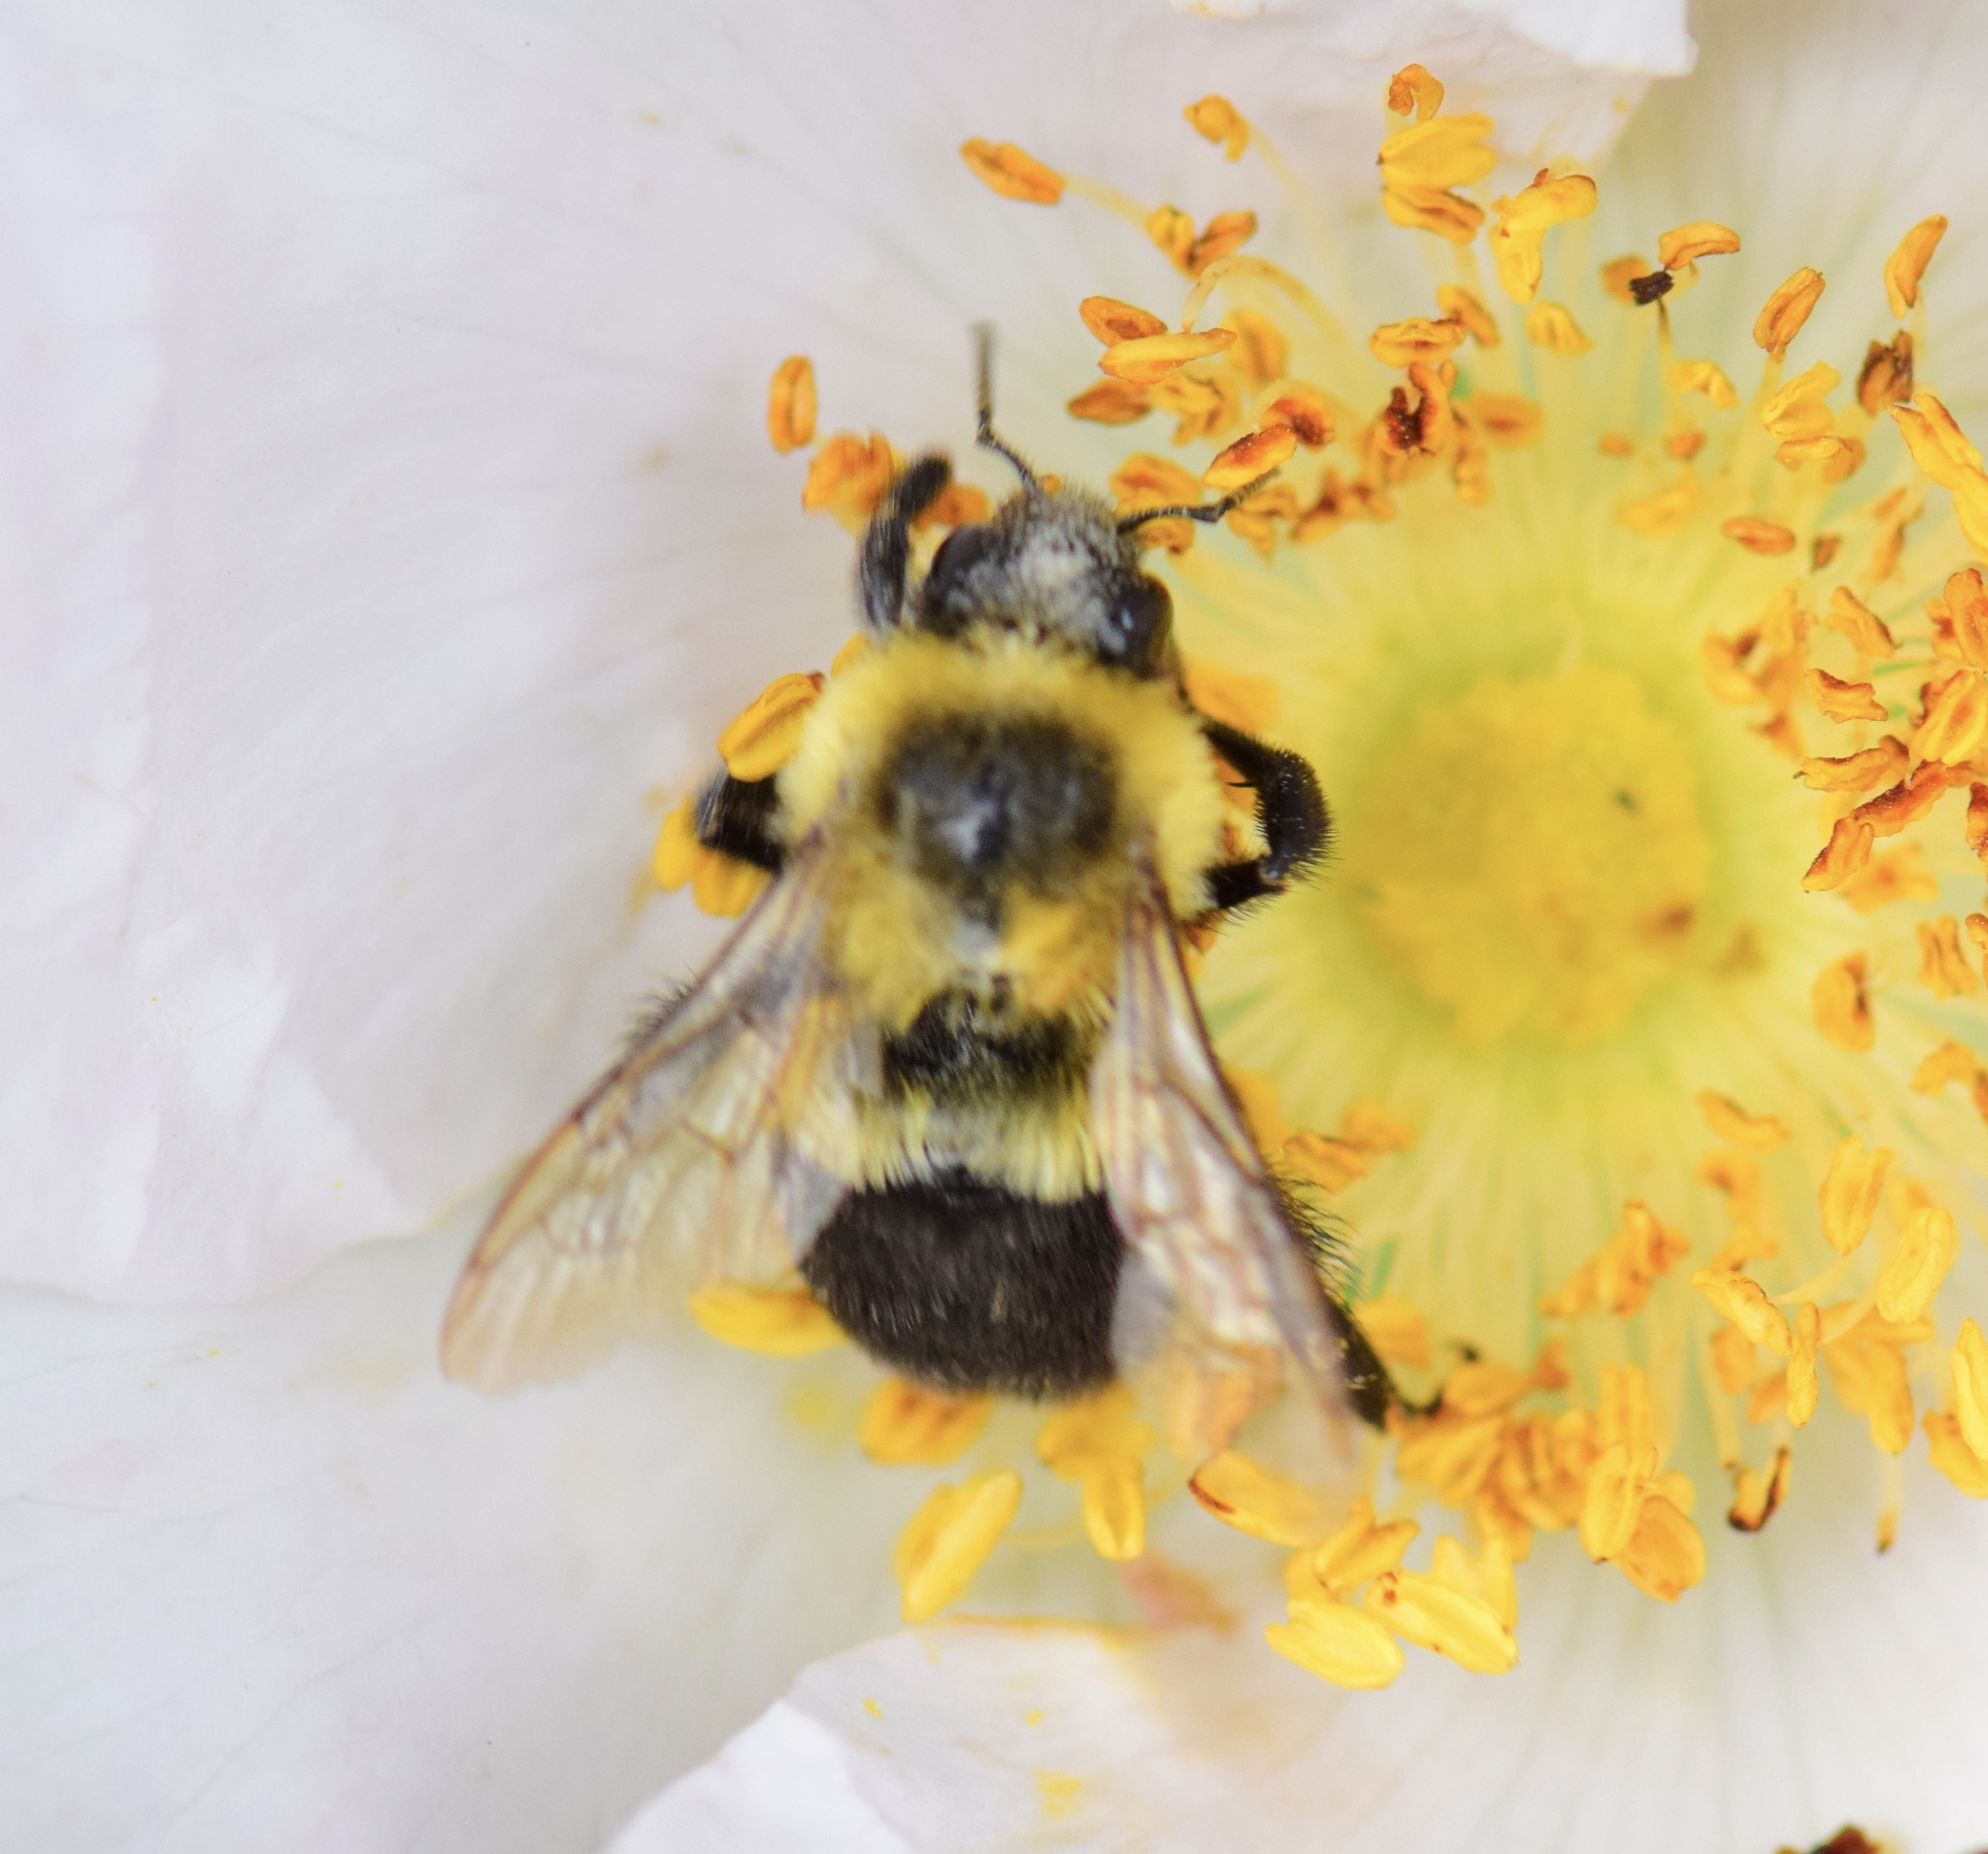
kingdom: Animalia
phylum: Arthropoda
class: Insecta
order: Hymenoptera
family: Apidae
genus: Bombus
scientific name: Bombus impatiens
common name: Common eastern bumble bee
